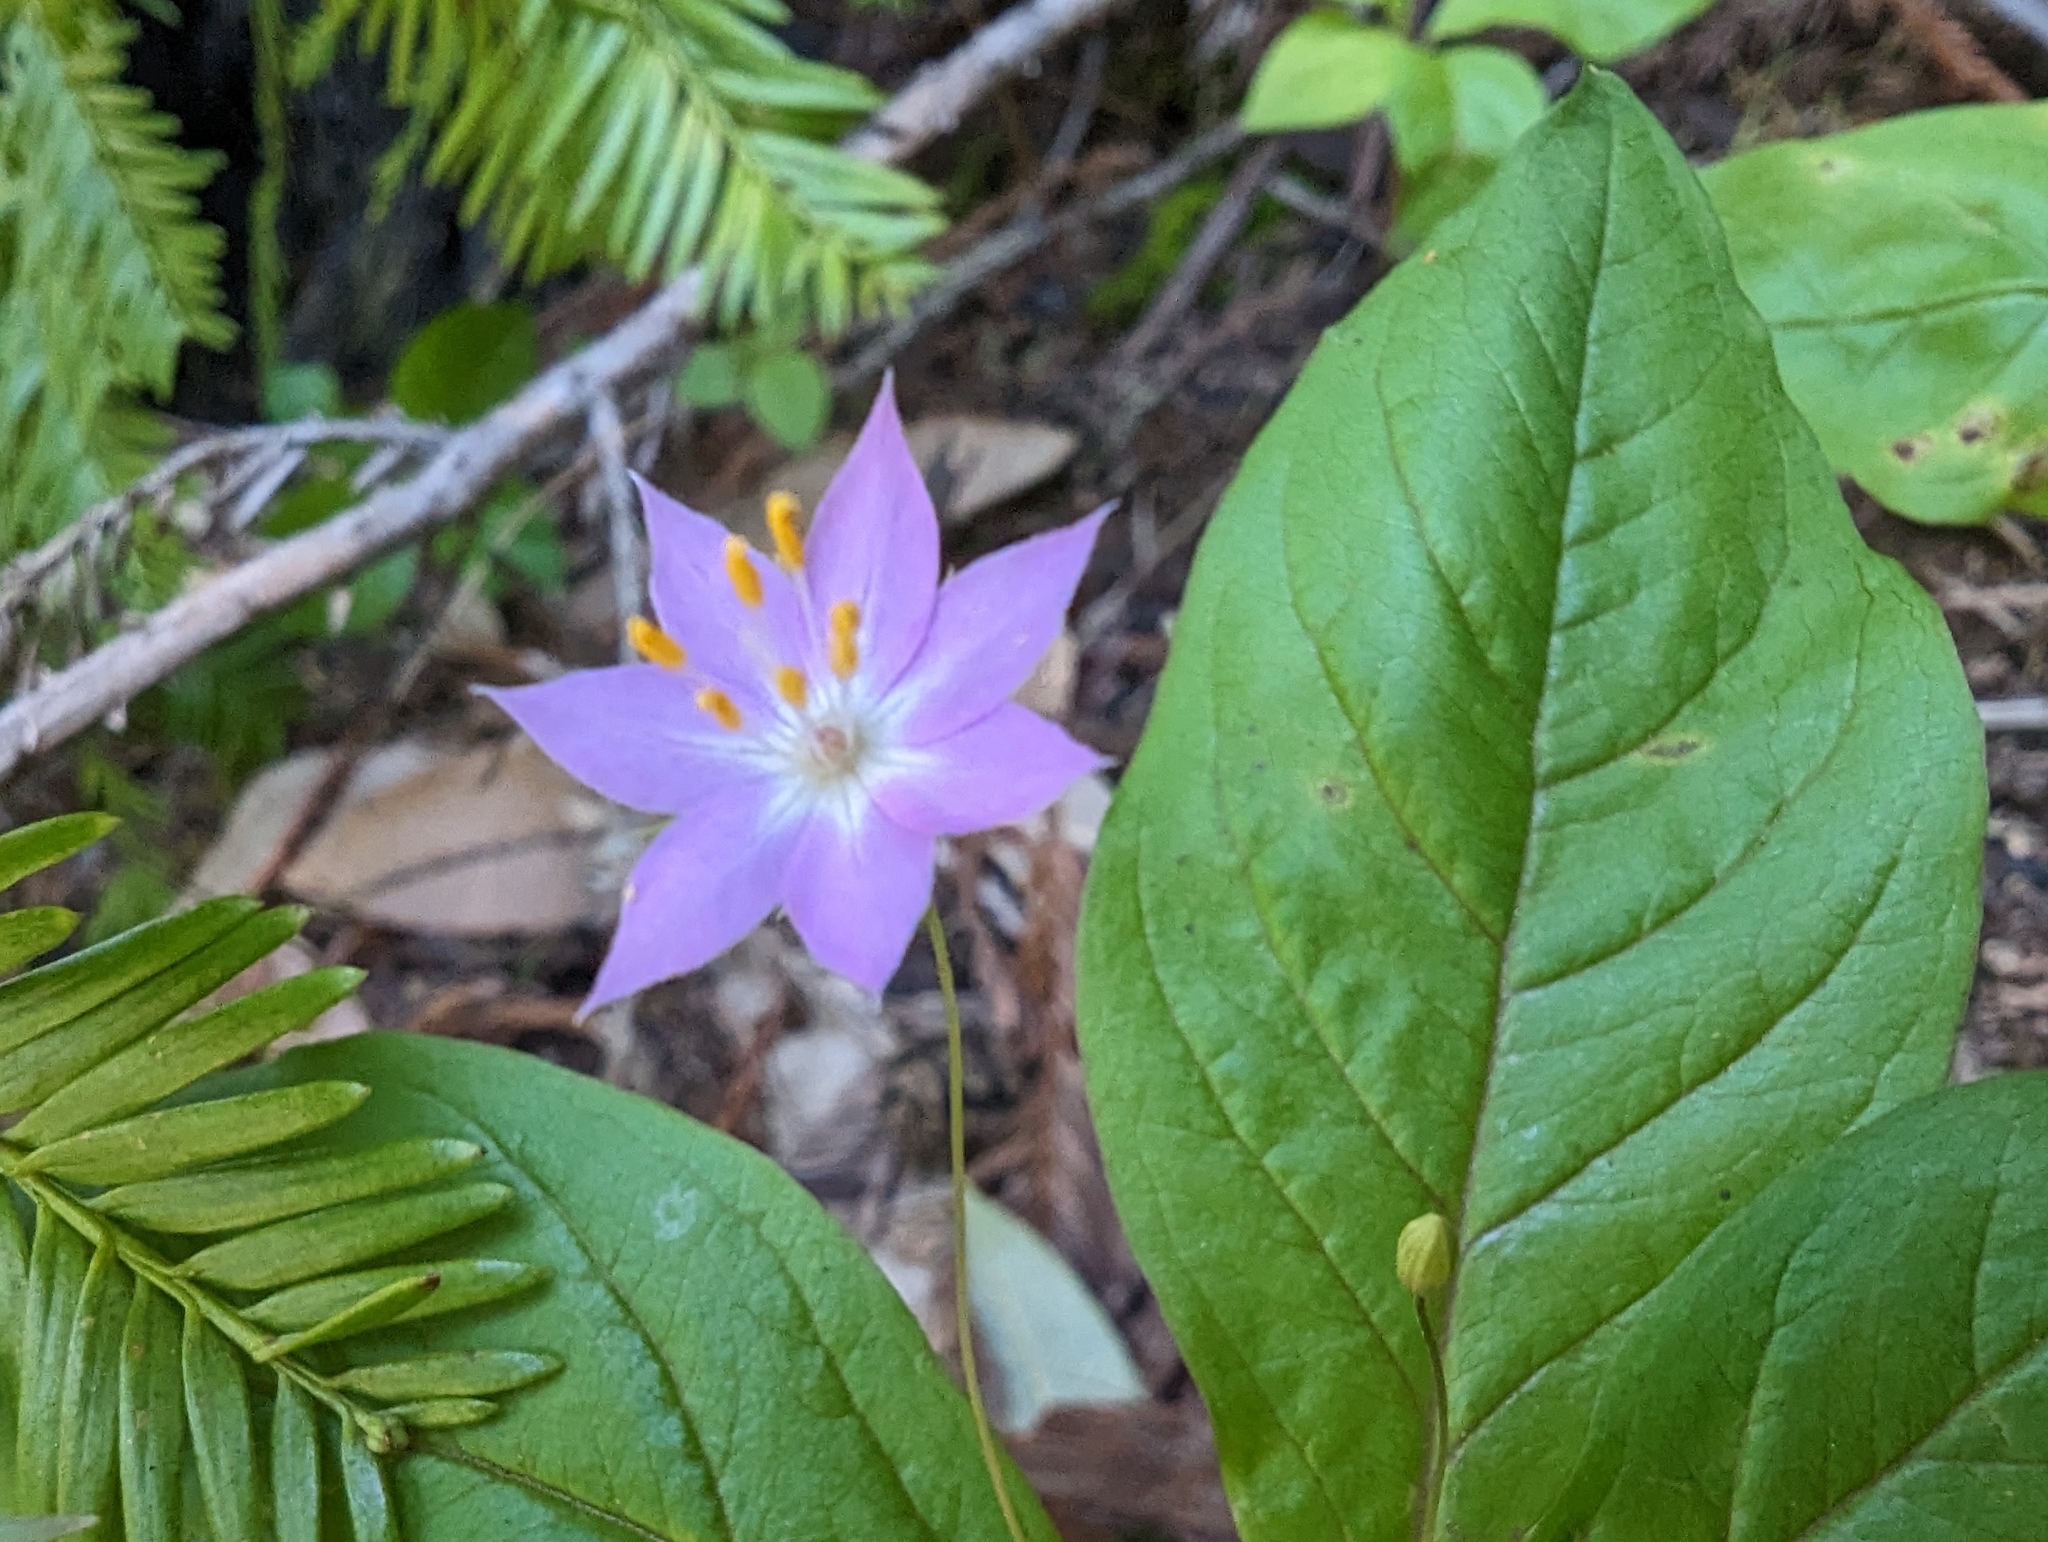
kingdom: Plantae
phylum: Tracheophyta
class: Magnoliopsida
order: Ericales
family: Primulaceae
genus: Lysimachia
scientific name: Lysimachia latifolia
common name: Pacific starflower
